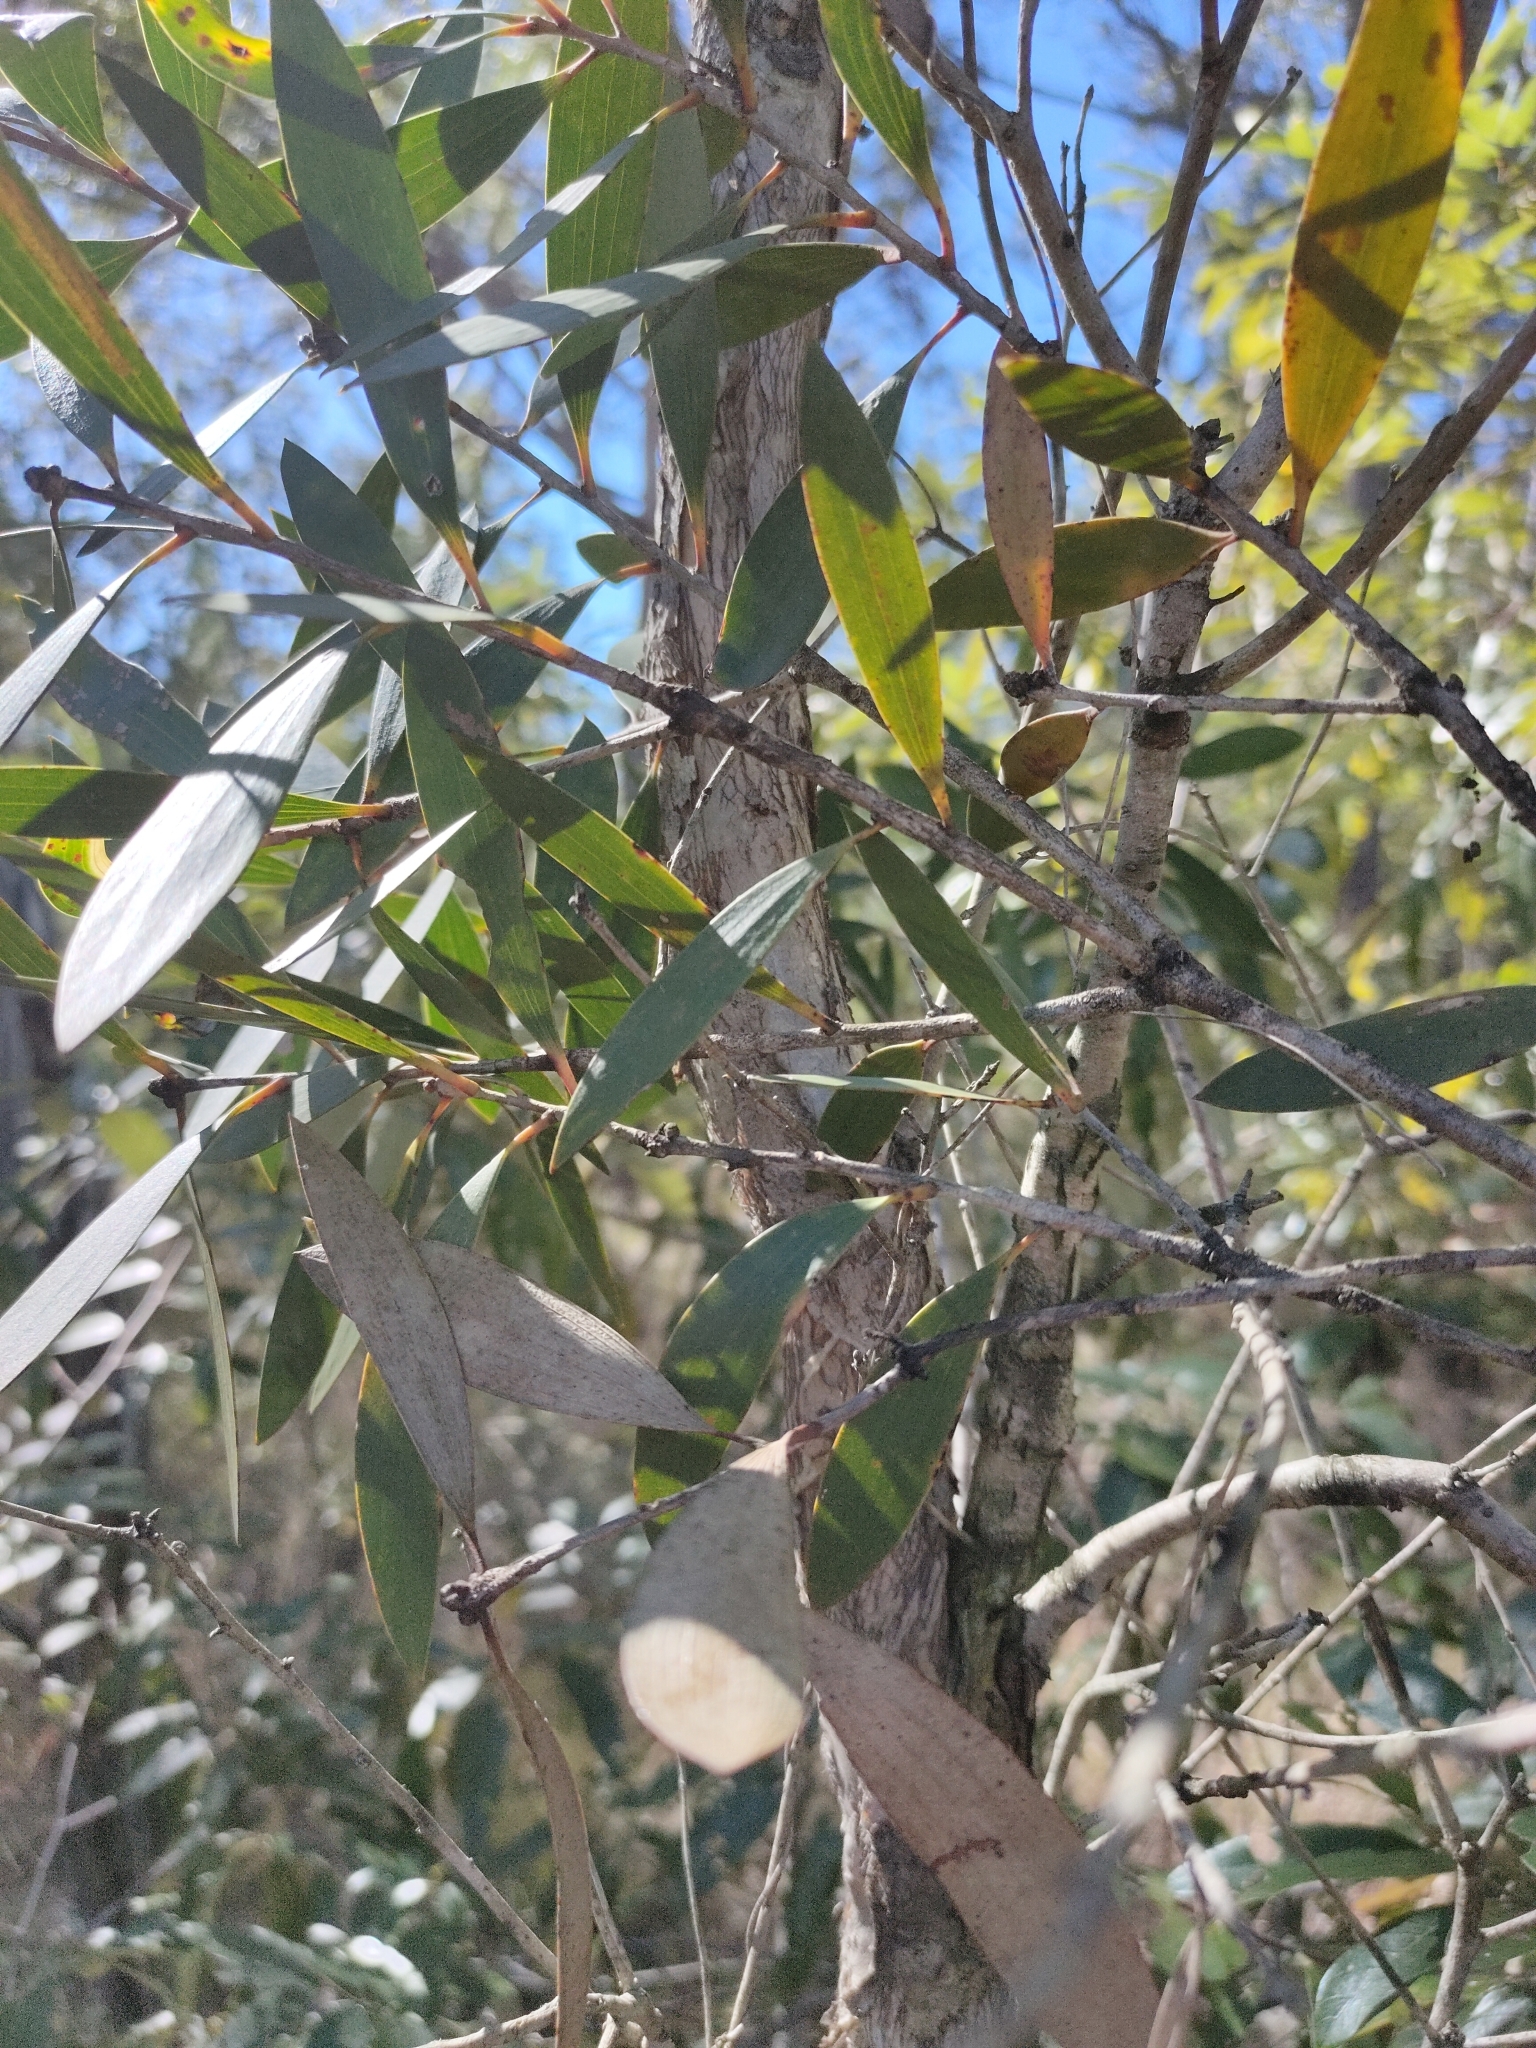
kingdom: Plantae
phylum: Tracheophyta
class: Magnoliopsida
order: Myrtales
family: Myrtaceae
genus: Melaleuca
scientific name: Melaleuca quinquenervia
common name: Punktree
